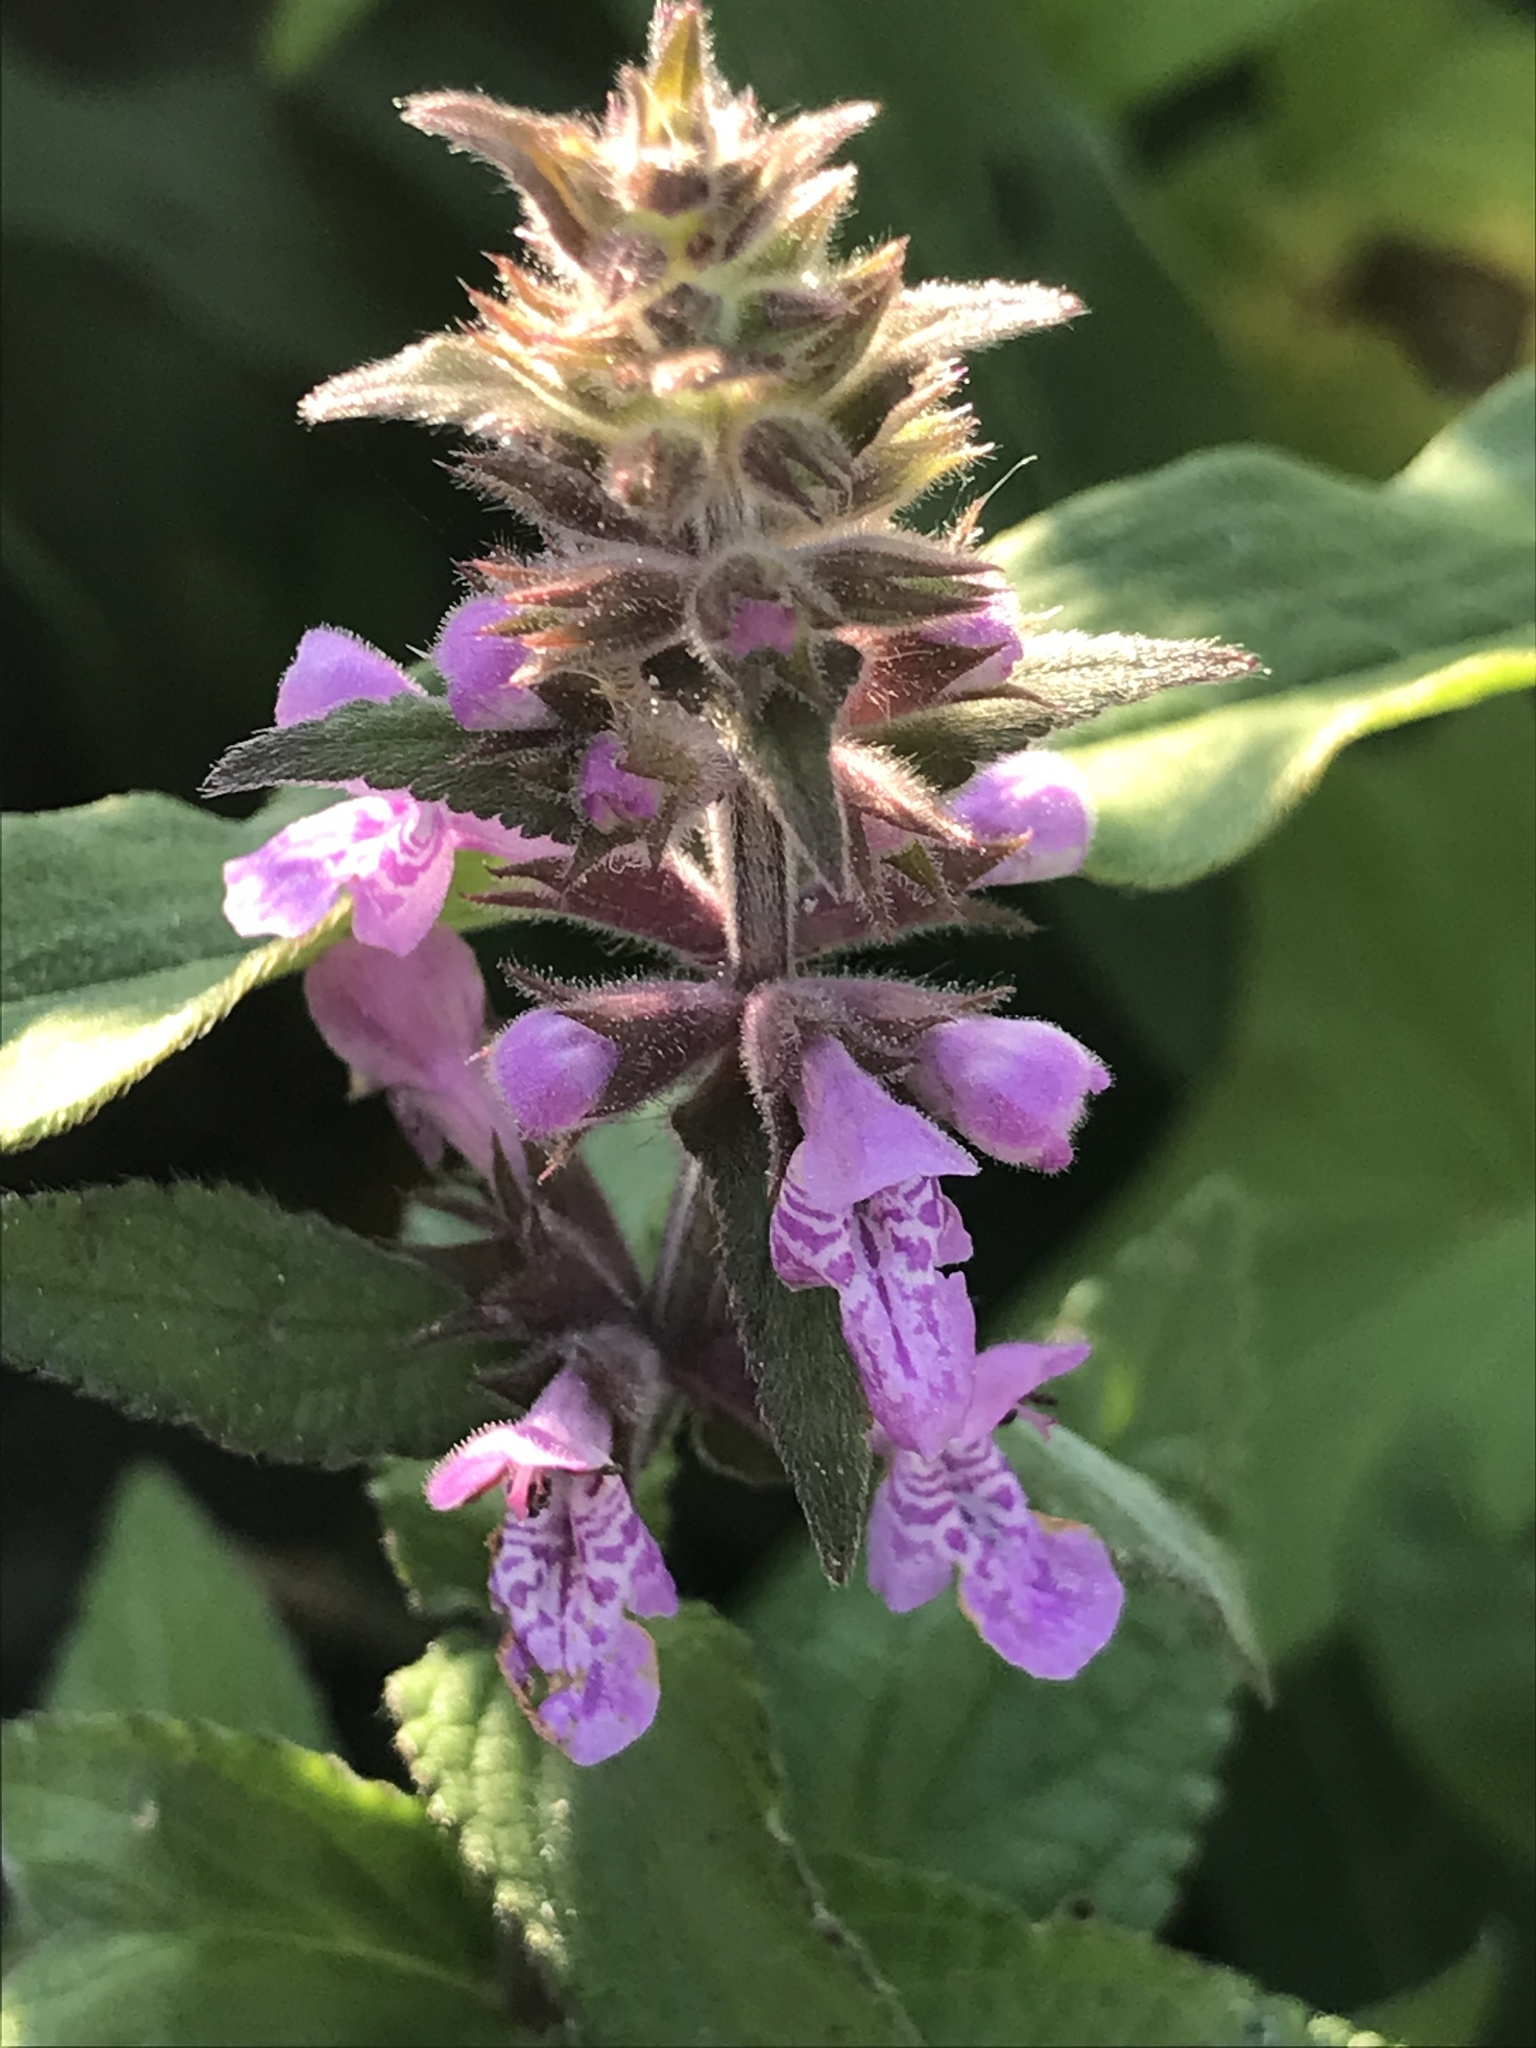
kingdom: Plantae
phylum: Tracheophyta
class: Magnoliopsida
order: Lamiales
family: Lamiaceae
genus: Stachys
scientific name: Stachys palustris
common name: Marsh woundwort
